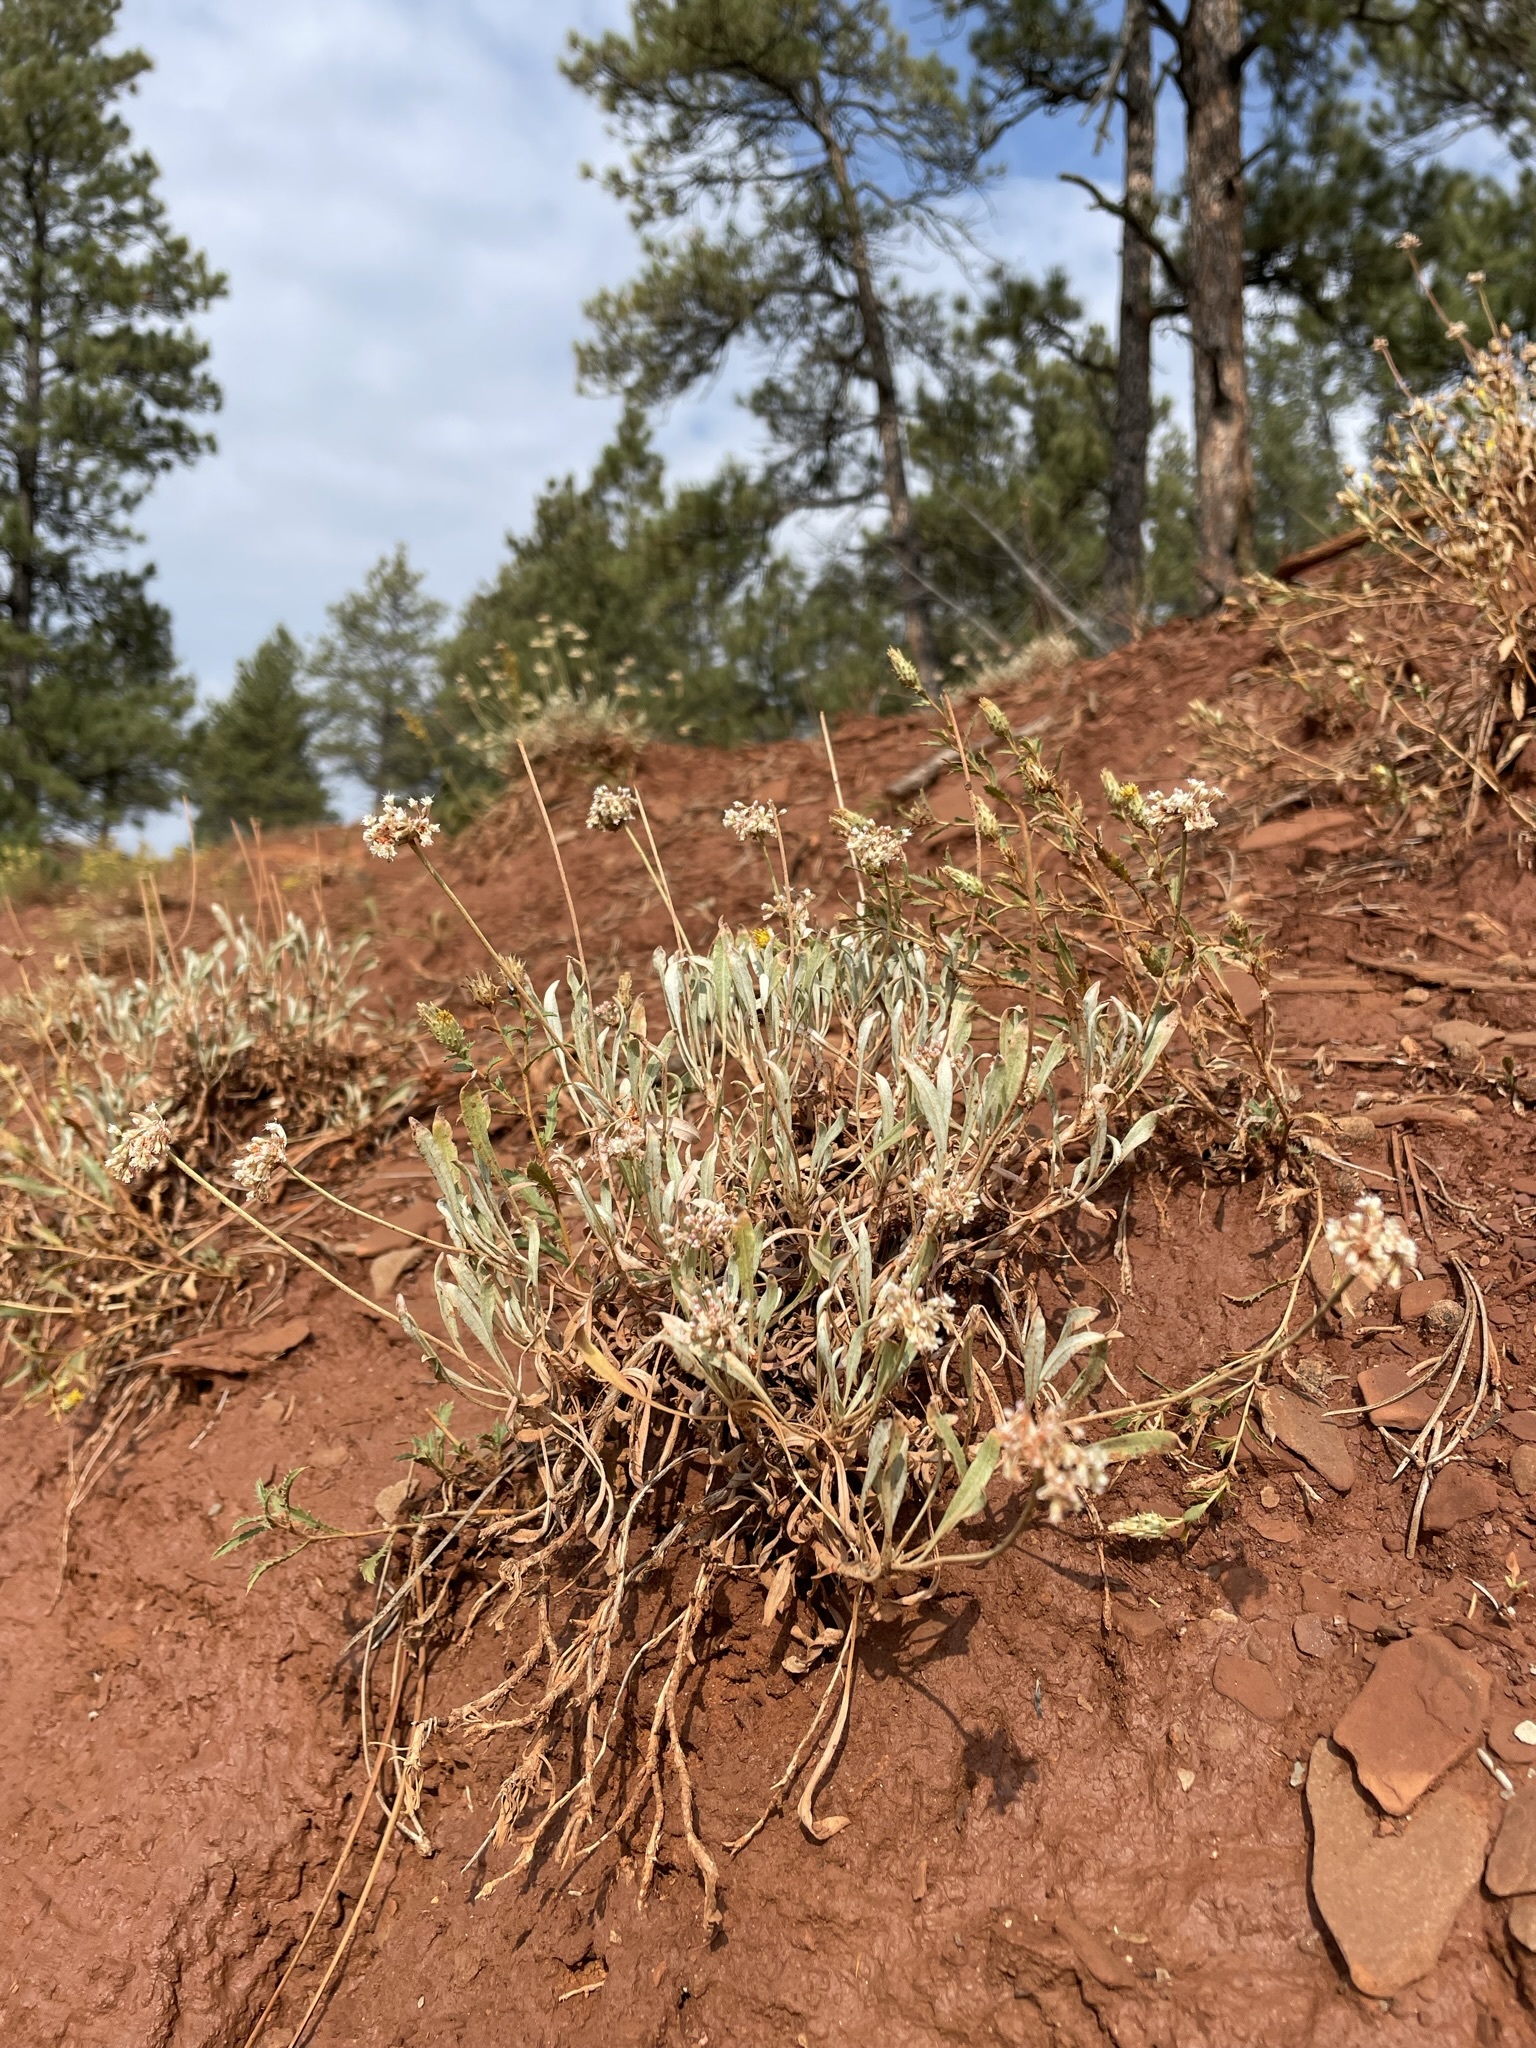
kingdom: Plantae
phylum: Tracheophyta
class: Magnoliopsida
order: Caryophyllales
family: Polygonaceae
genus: Eriogonum
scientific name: Eriogonum pauciflorum
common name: Few-flower wild buckwheat
